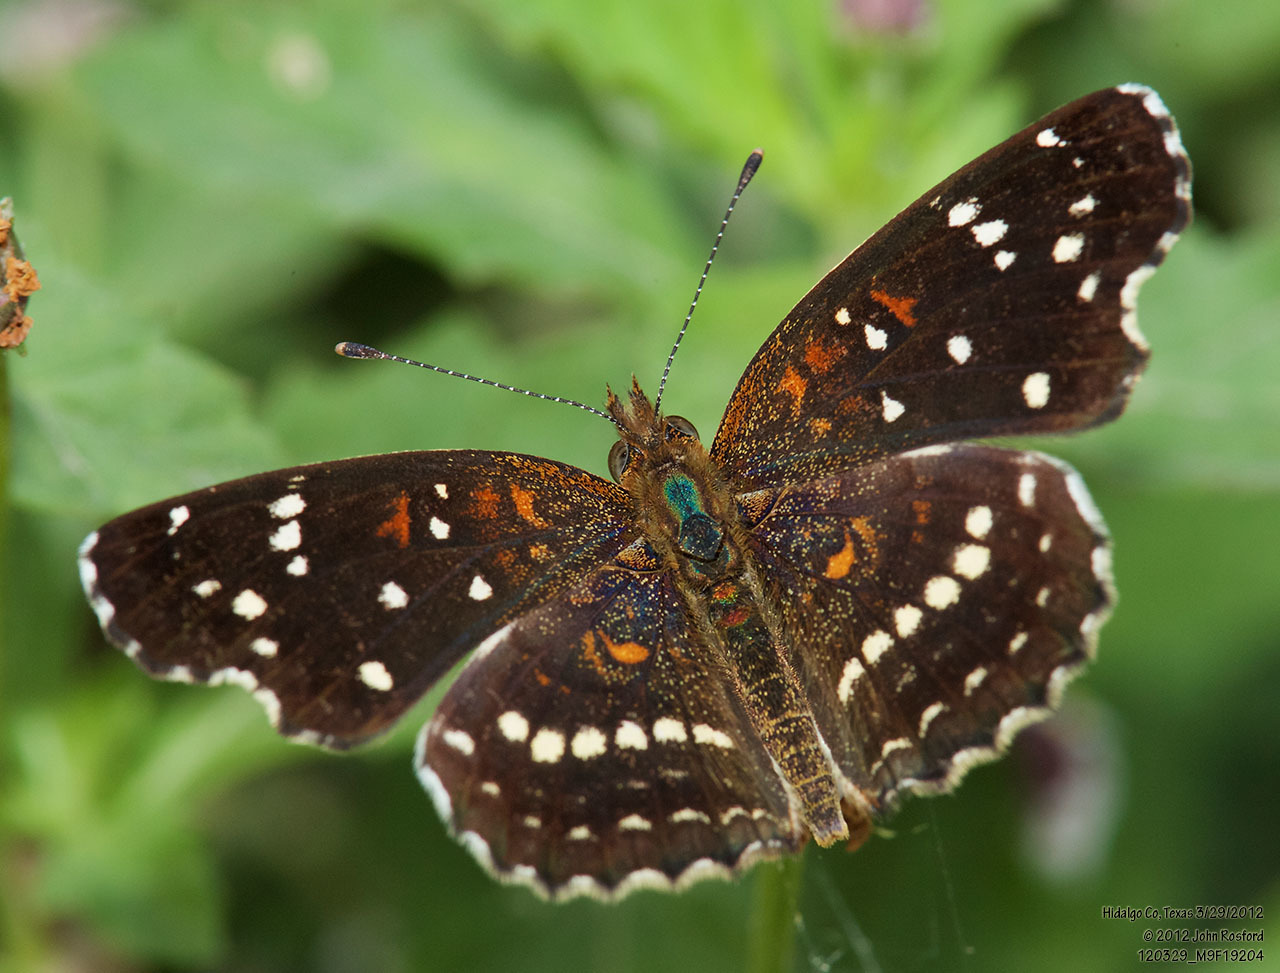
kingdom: Animalia
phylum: Arthropoda
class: Insecta
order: Lepidoptera
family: Nymphalidae
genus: Anthanassa
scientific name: Anthanassa texana
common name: Texan crescent
